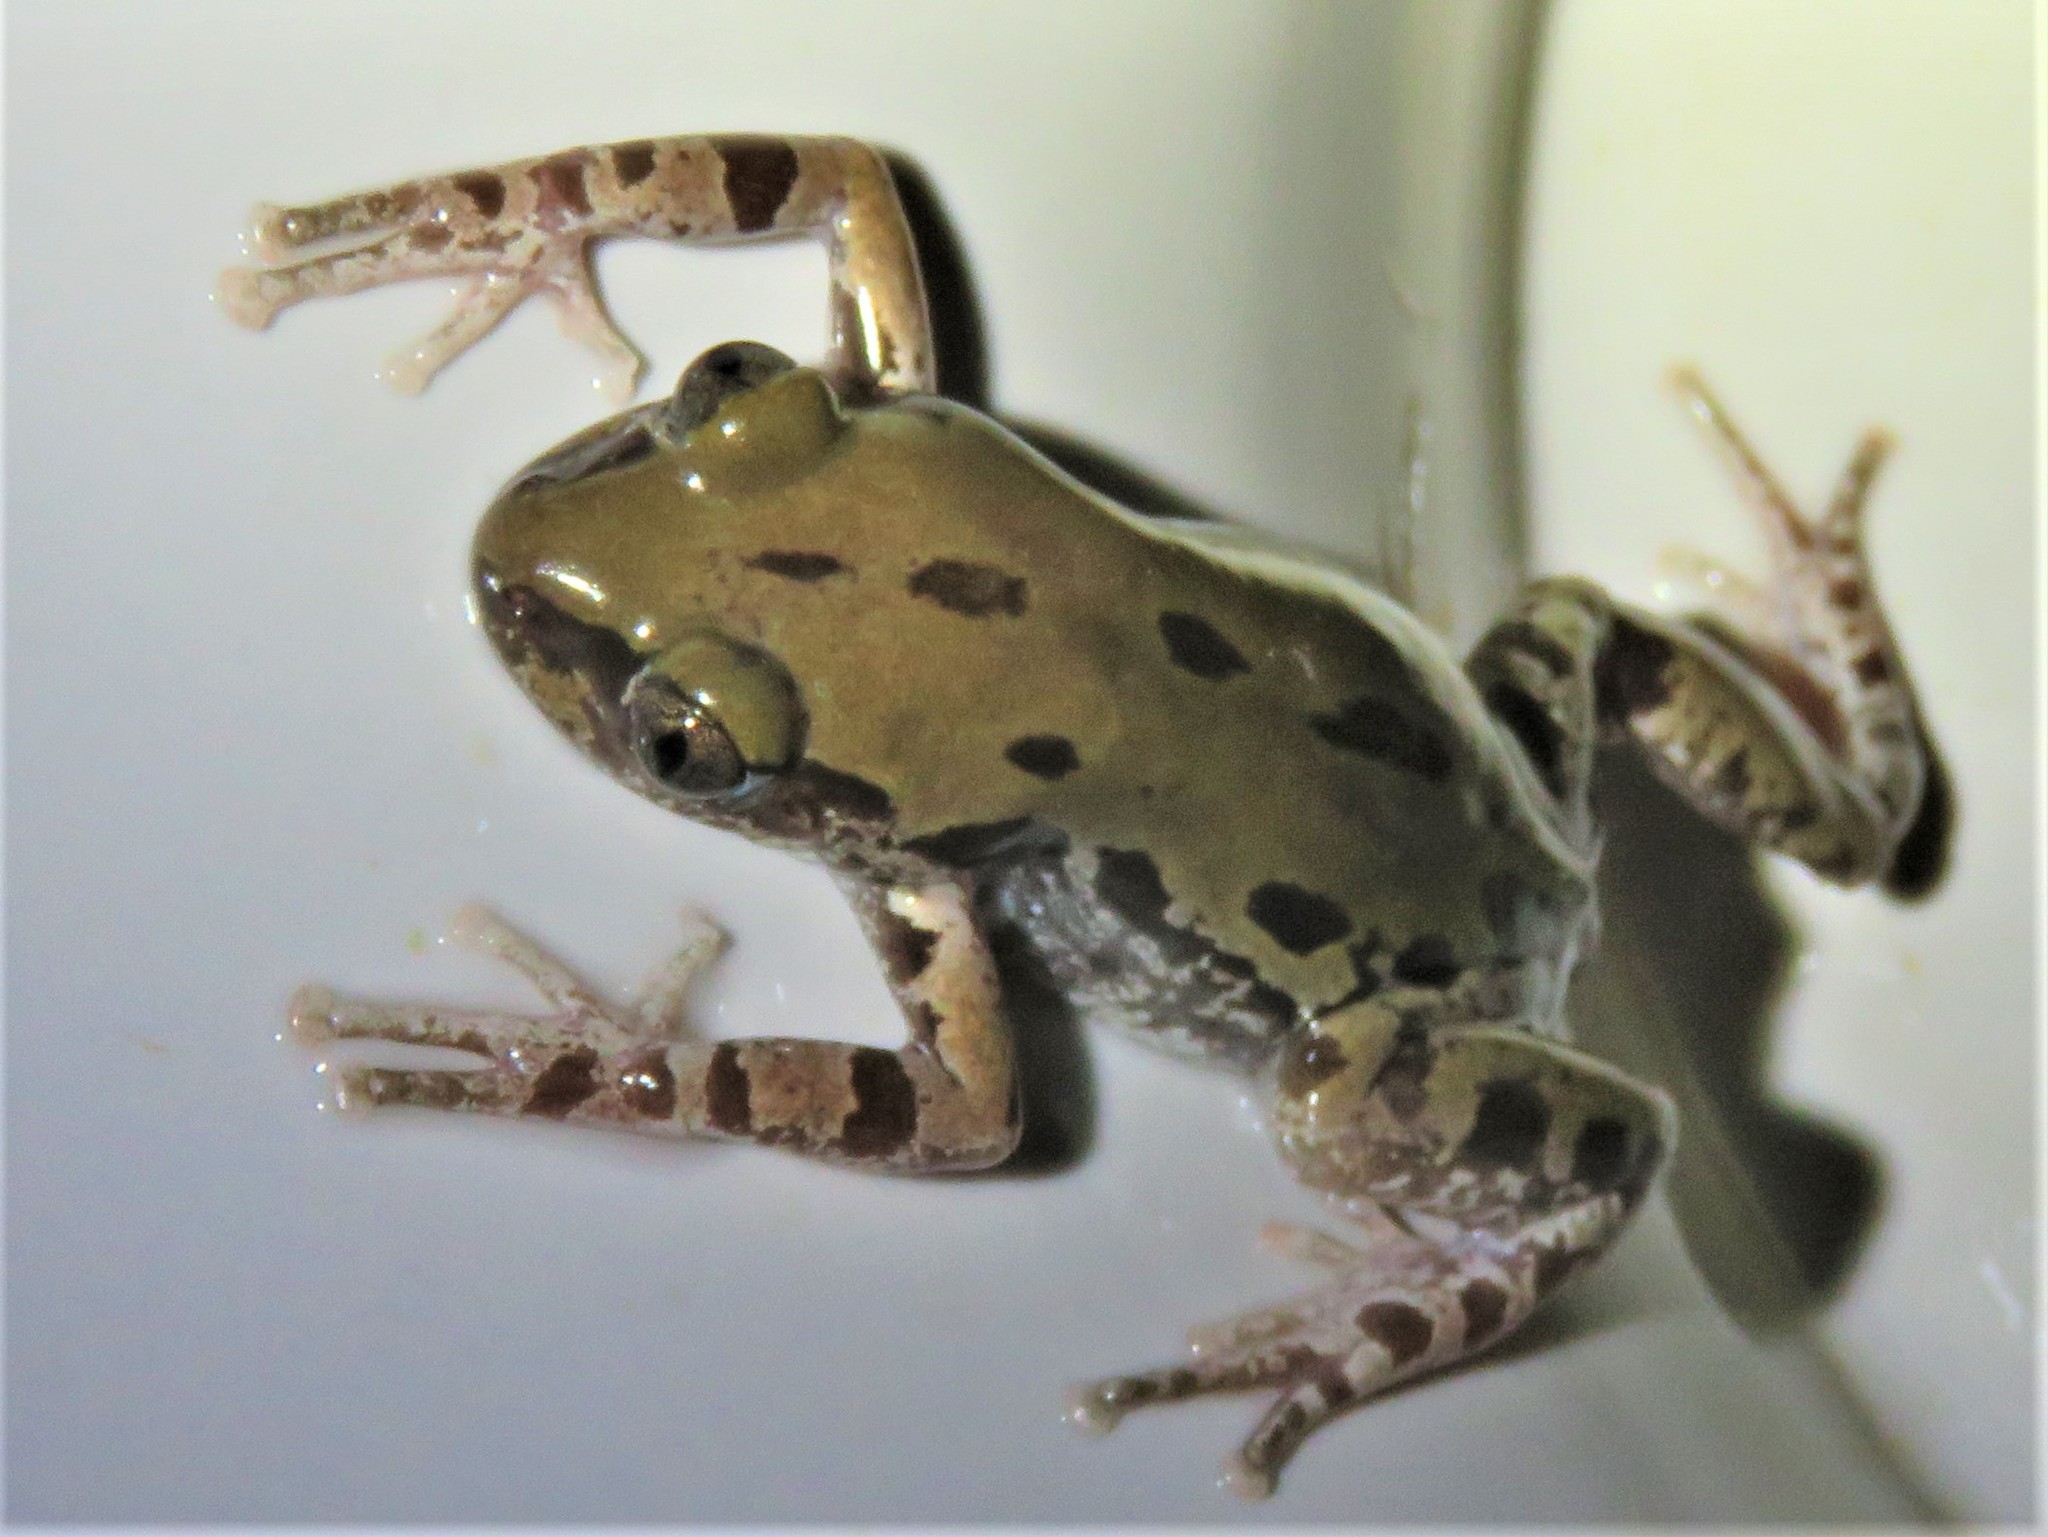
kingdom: Animalia
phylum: Chordata
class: Amphibia
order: Anura
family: Hyperoliidae
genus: Kassina
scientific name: Kassina somalica
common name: Somali running frog
